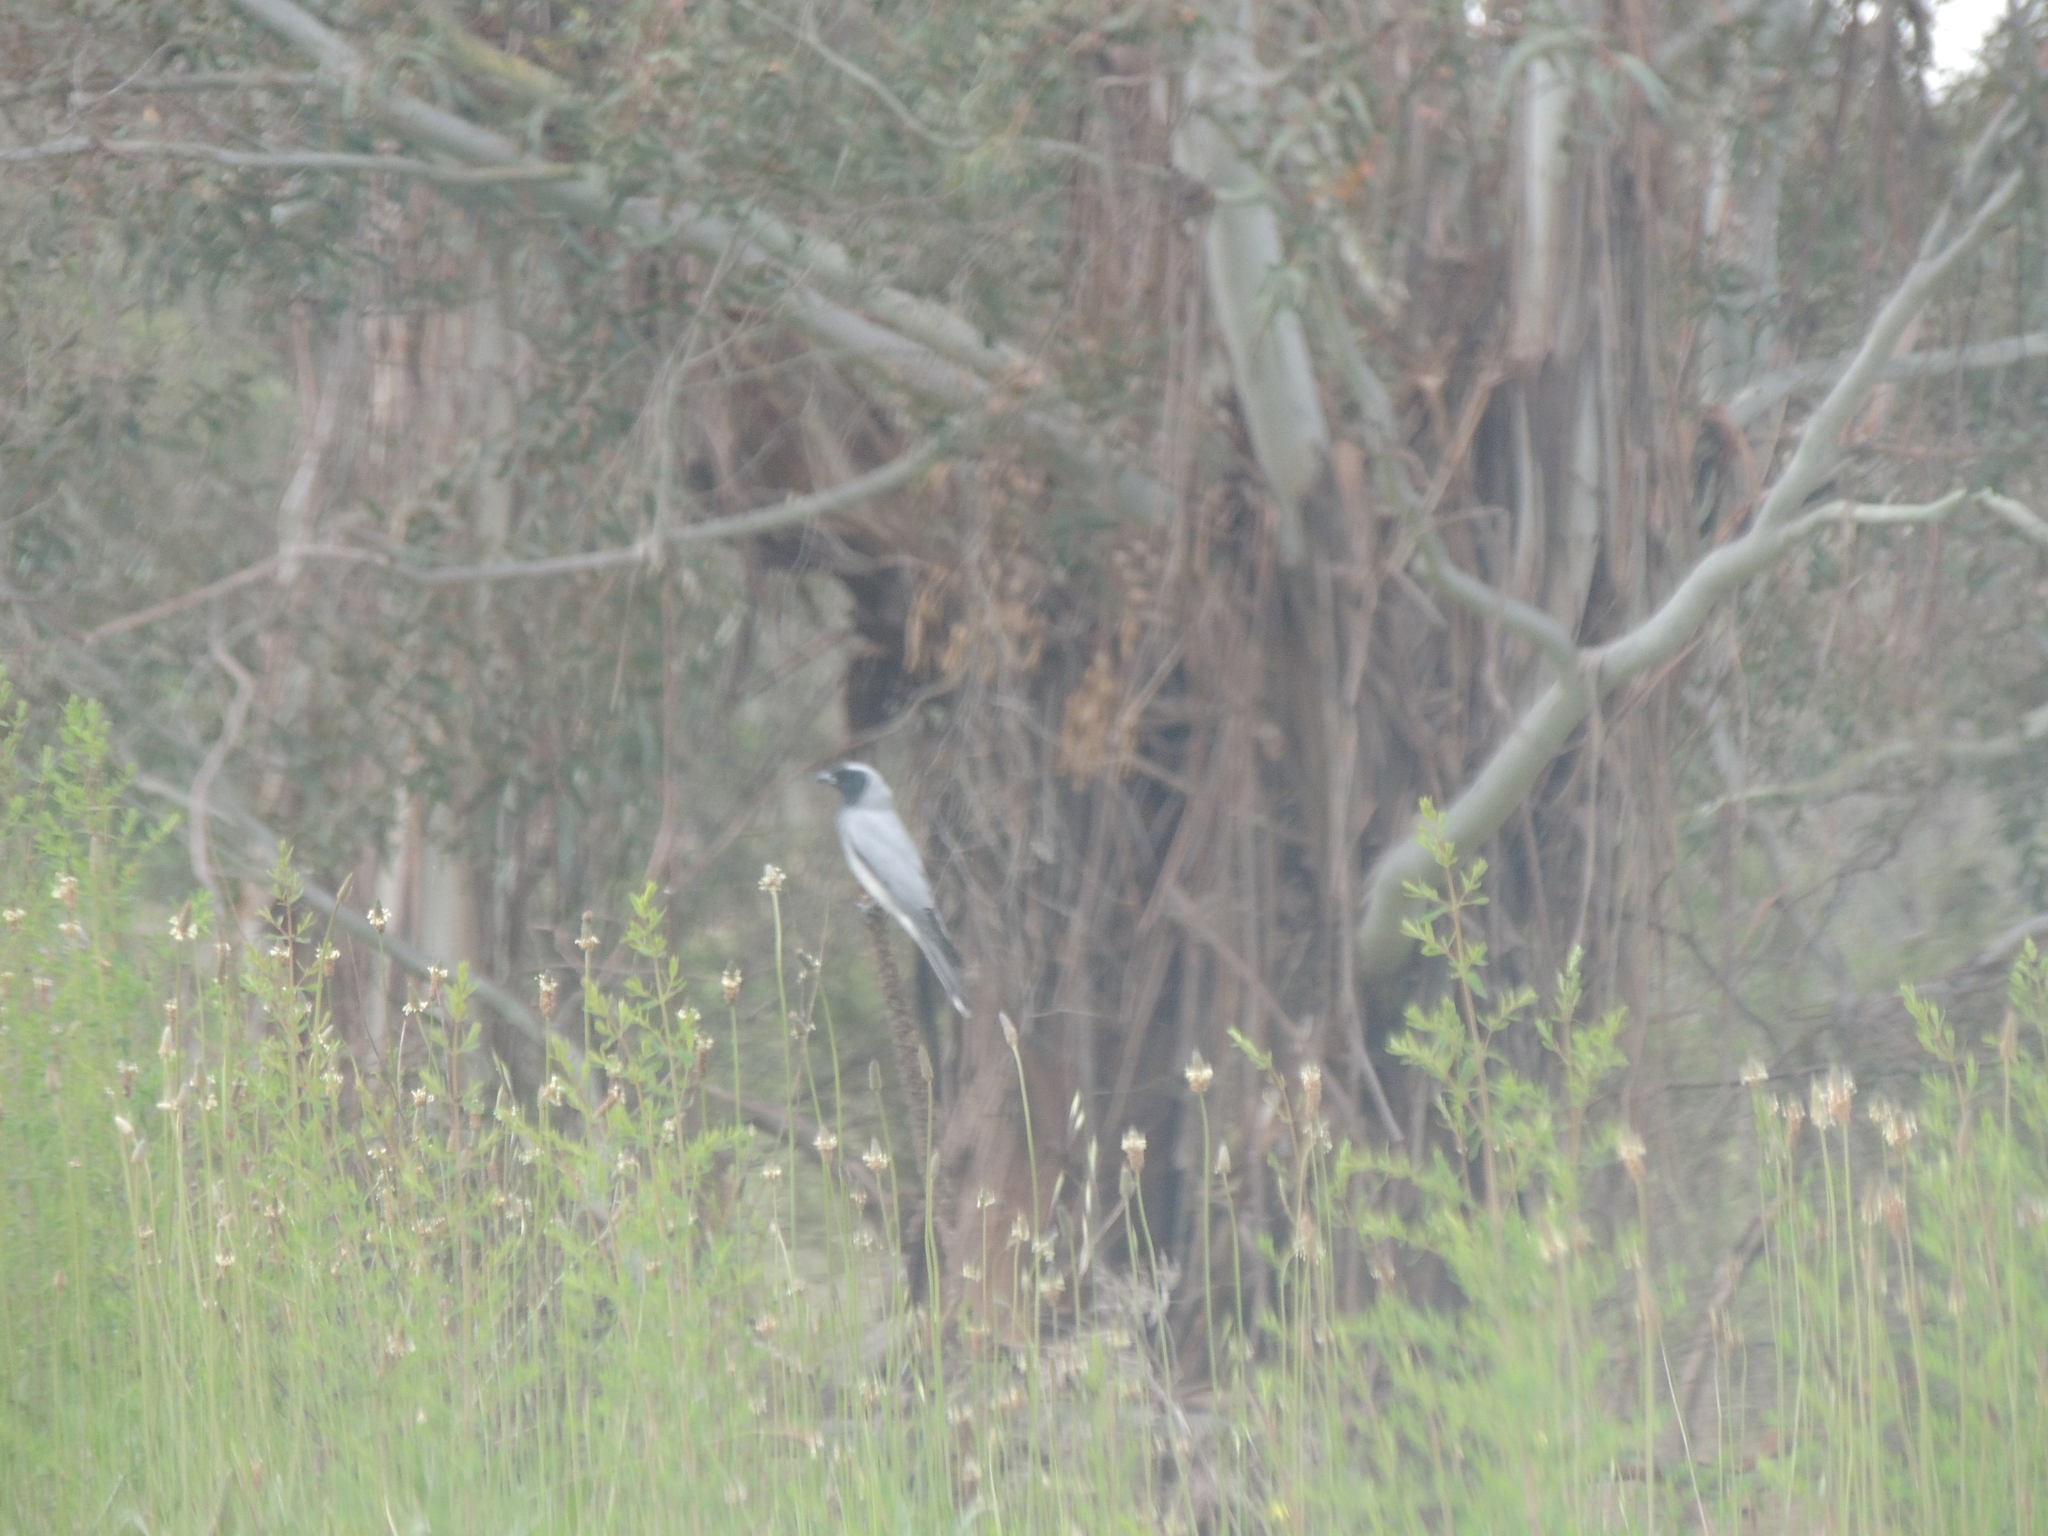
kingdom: Animalia
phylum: Chordata
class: Aves
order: Passeriformes
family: Campephagidae
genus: Coracina
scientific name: Coracina novaehollandiae
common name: Black-faced cuckooshrike
